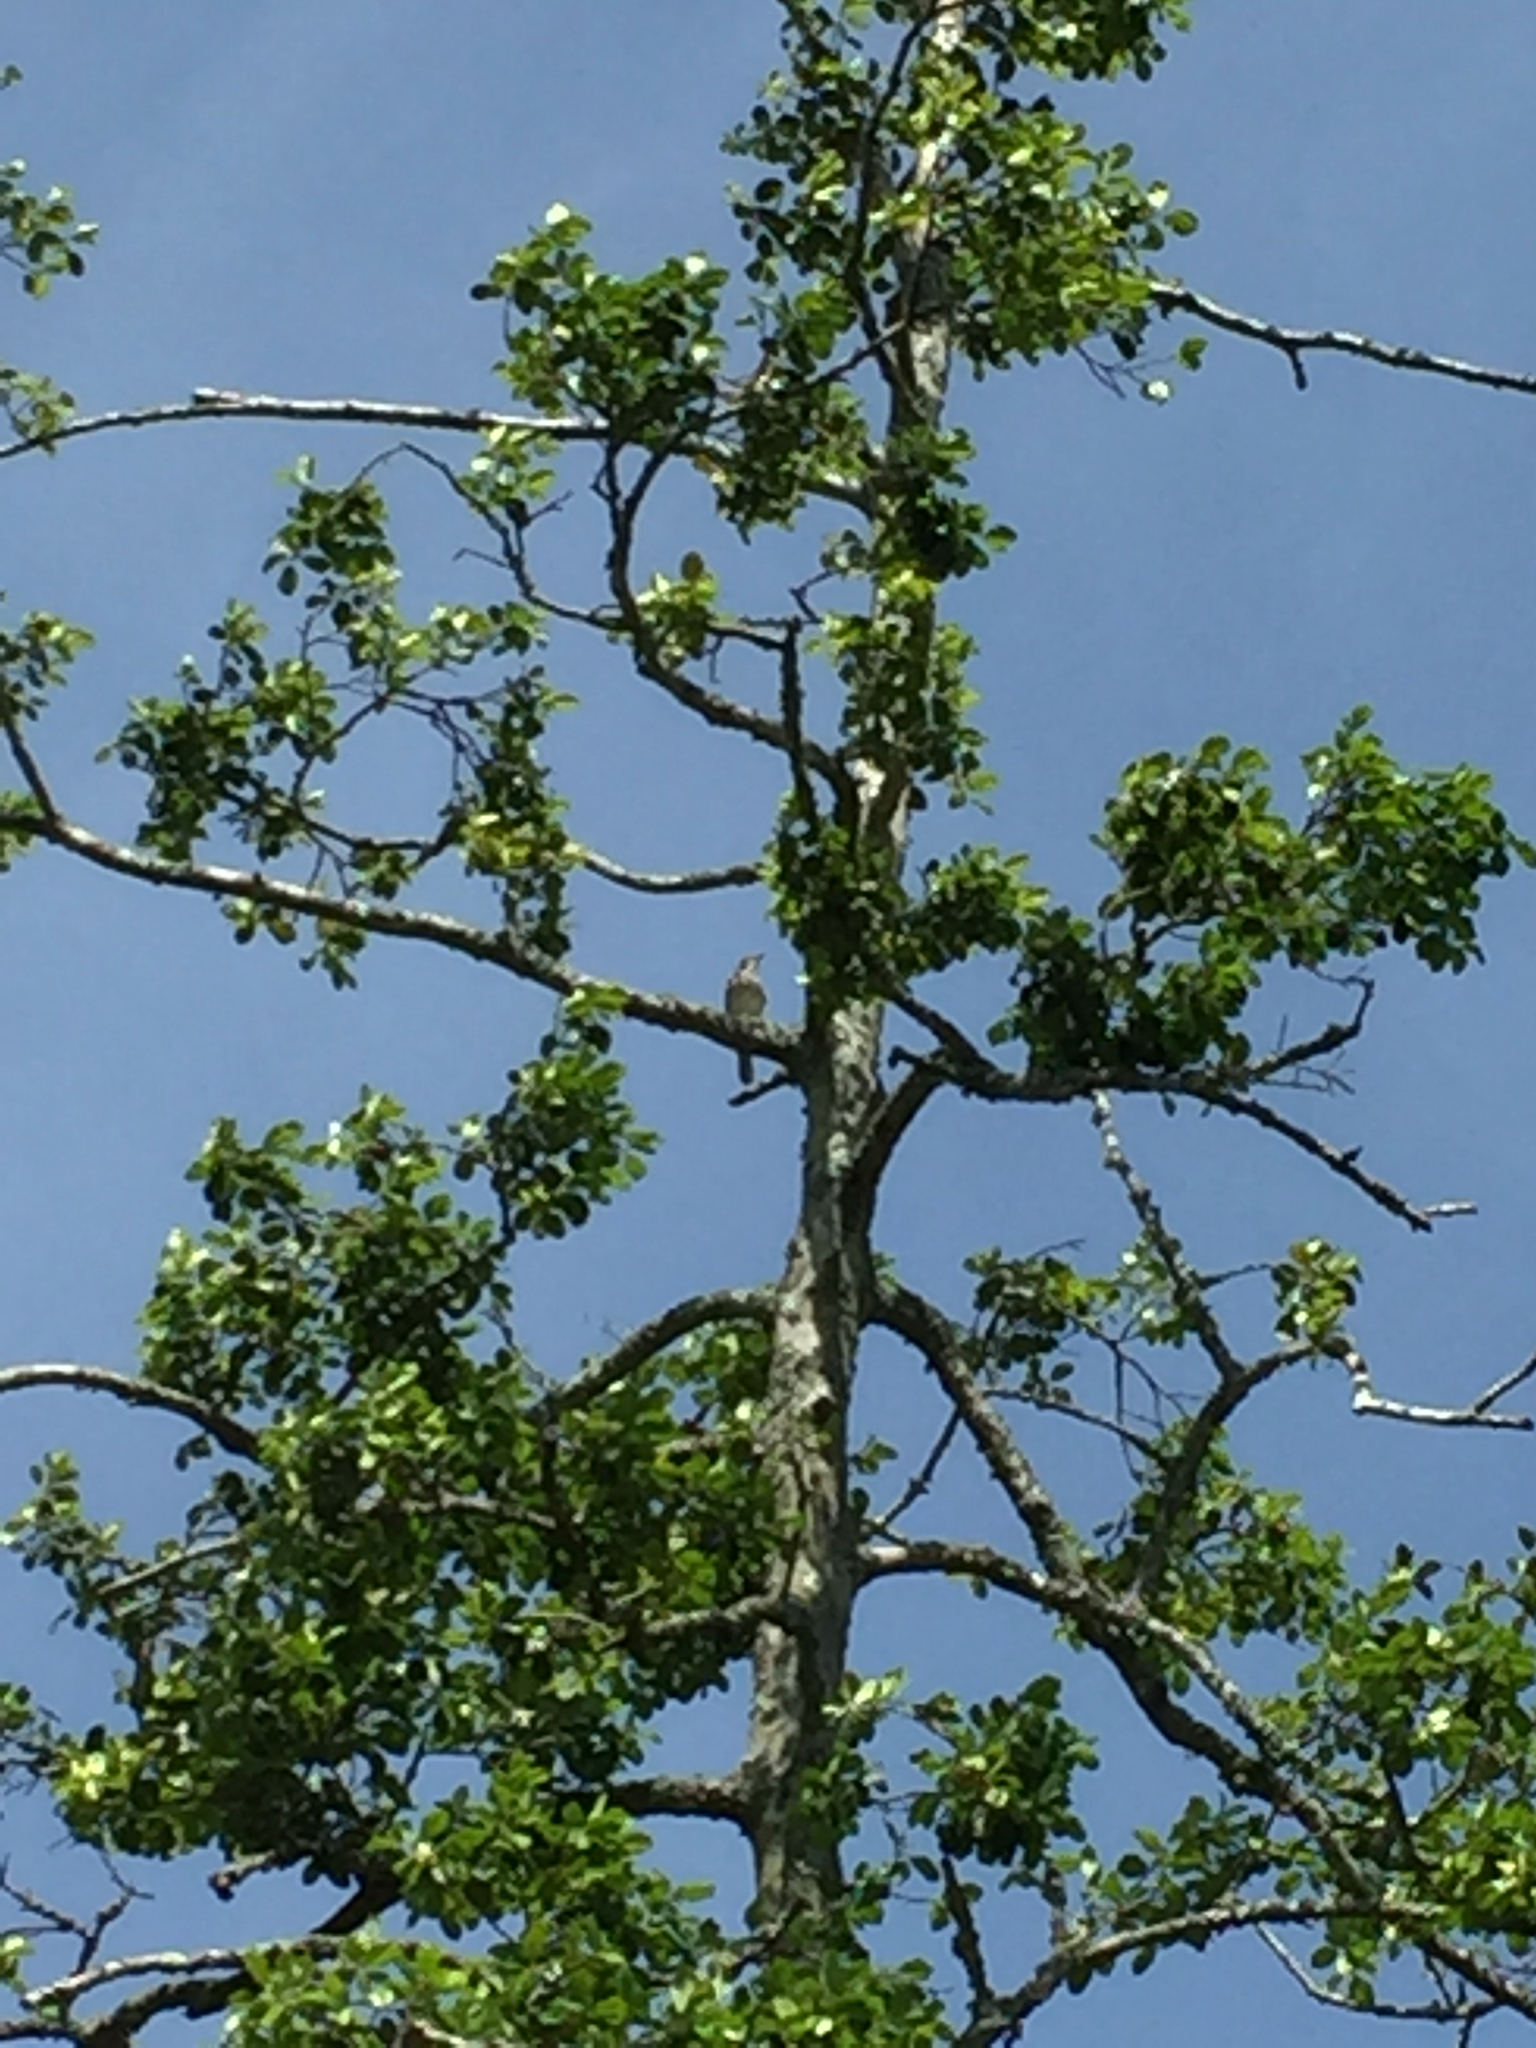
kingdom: Animalia
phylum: Chordata
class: Aves
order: Passeriformes
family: Mimidae
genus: Mimus
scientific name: Mimus polyglottos
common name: Northern mockingbird
